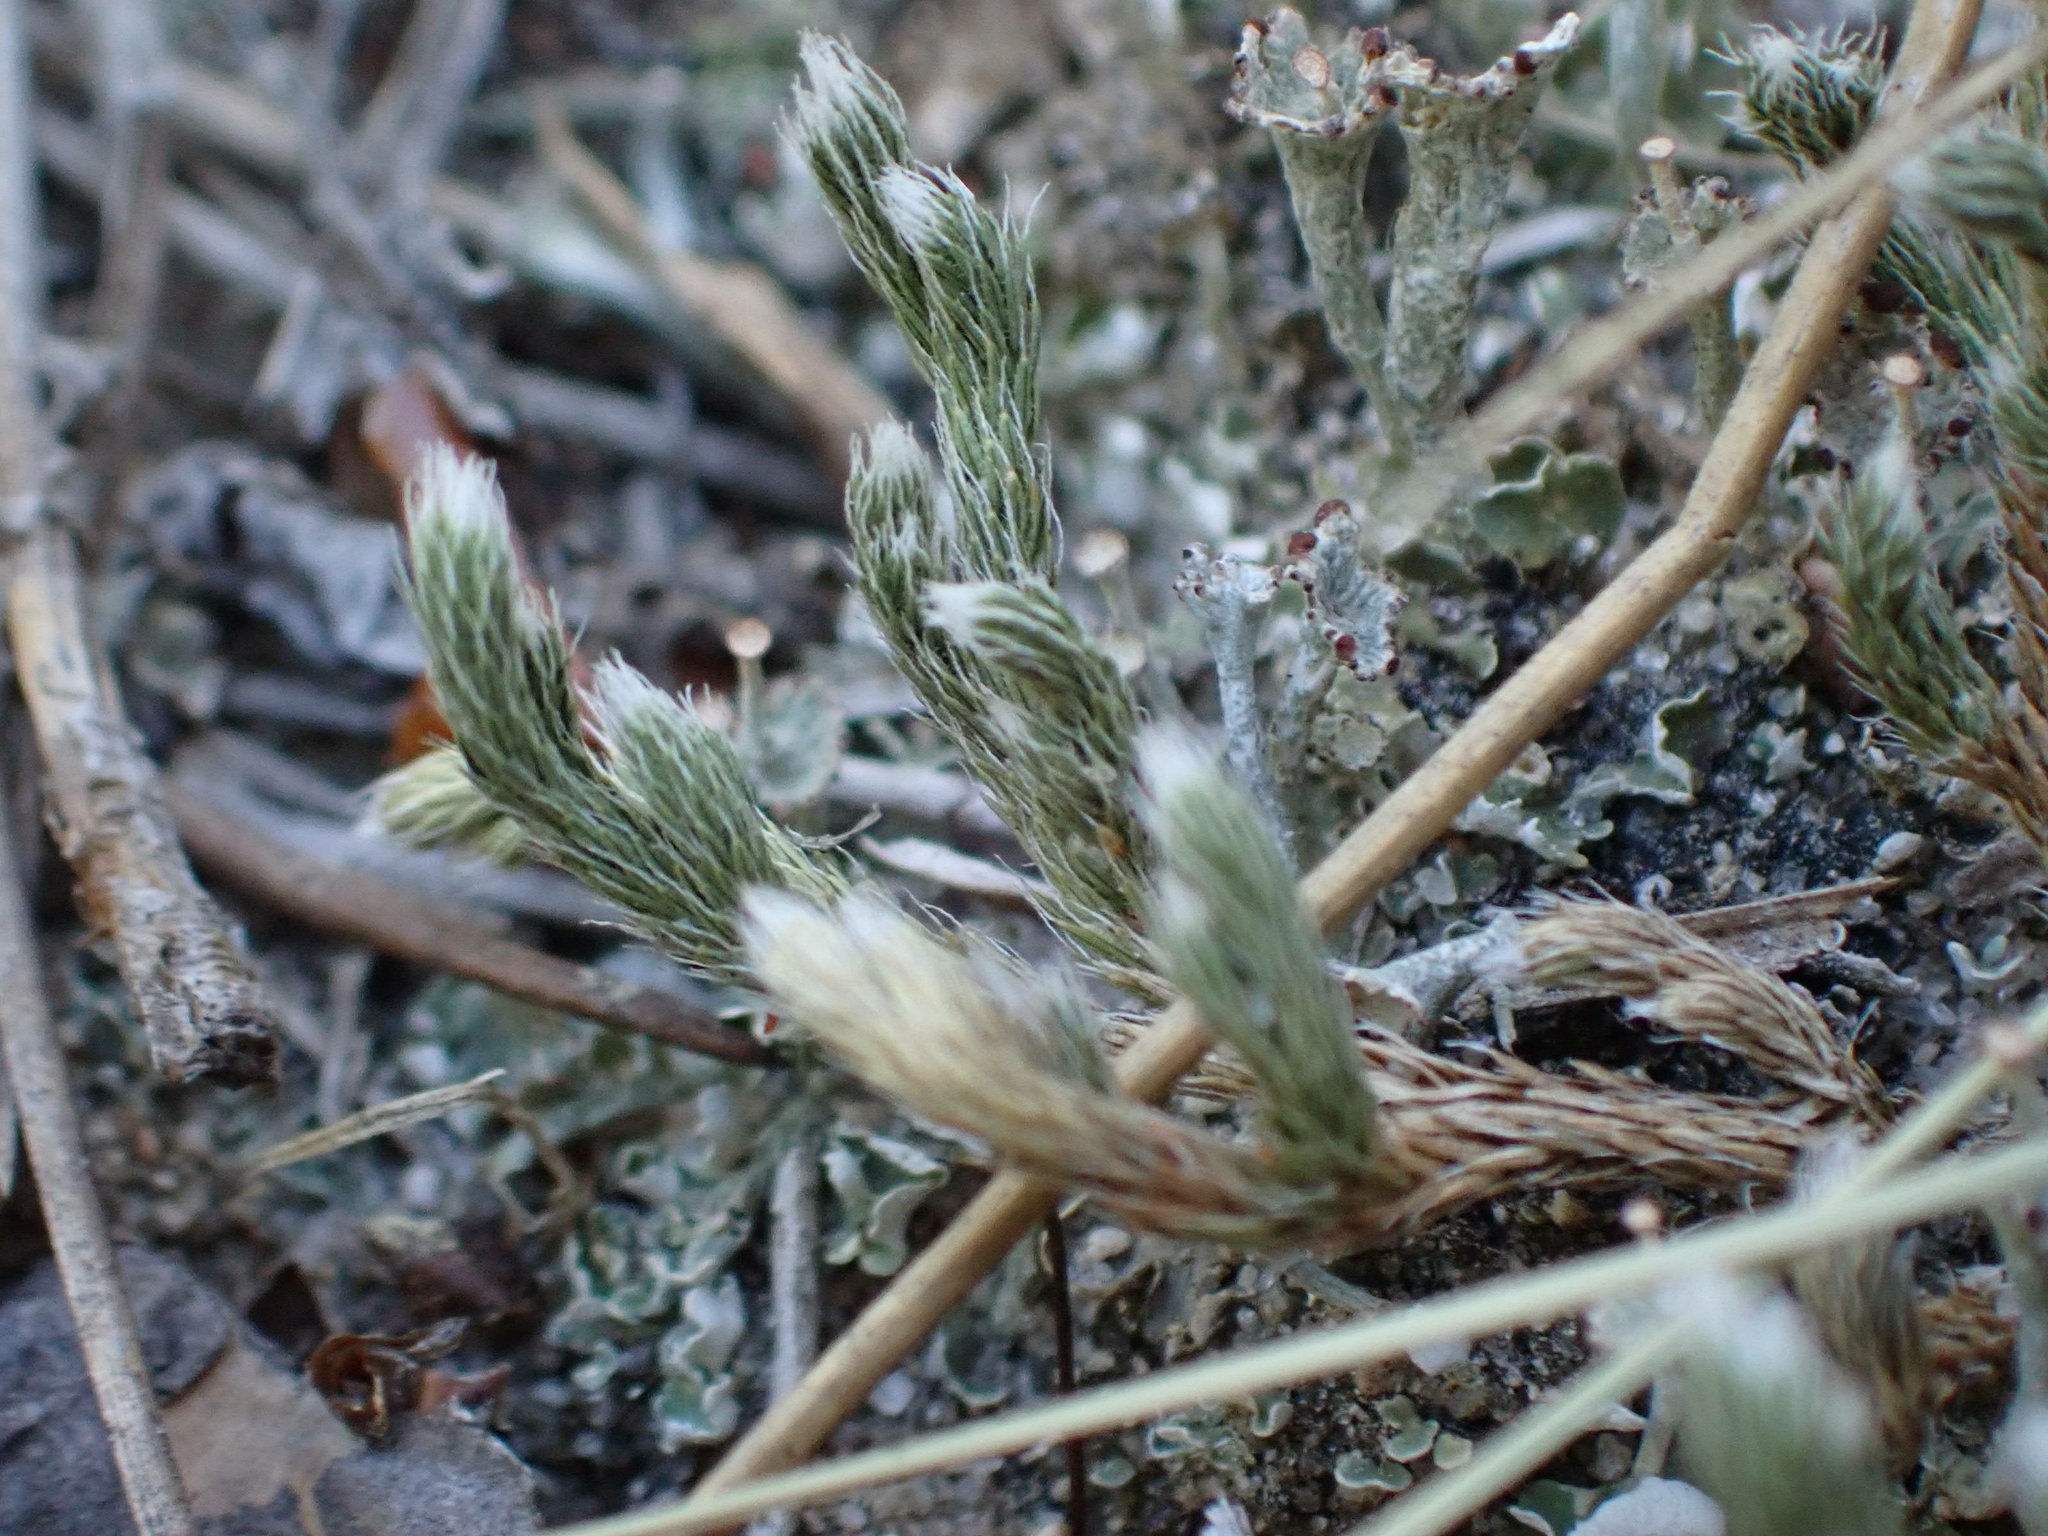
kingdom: Plantae
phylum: Tracheophyta
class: Lycopodiopsida
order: Selaginellales
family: Selaginellaceae
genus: Selaginella
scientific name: Selaginella rupestris
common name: Dwarf spikemoss
